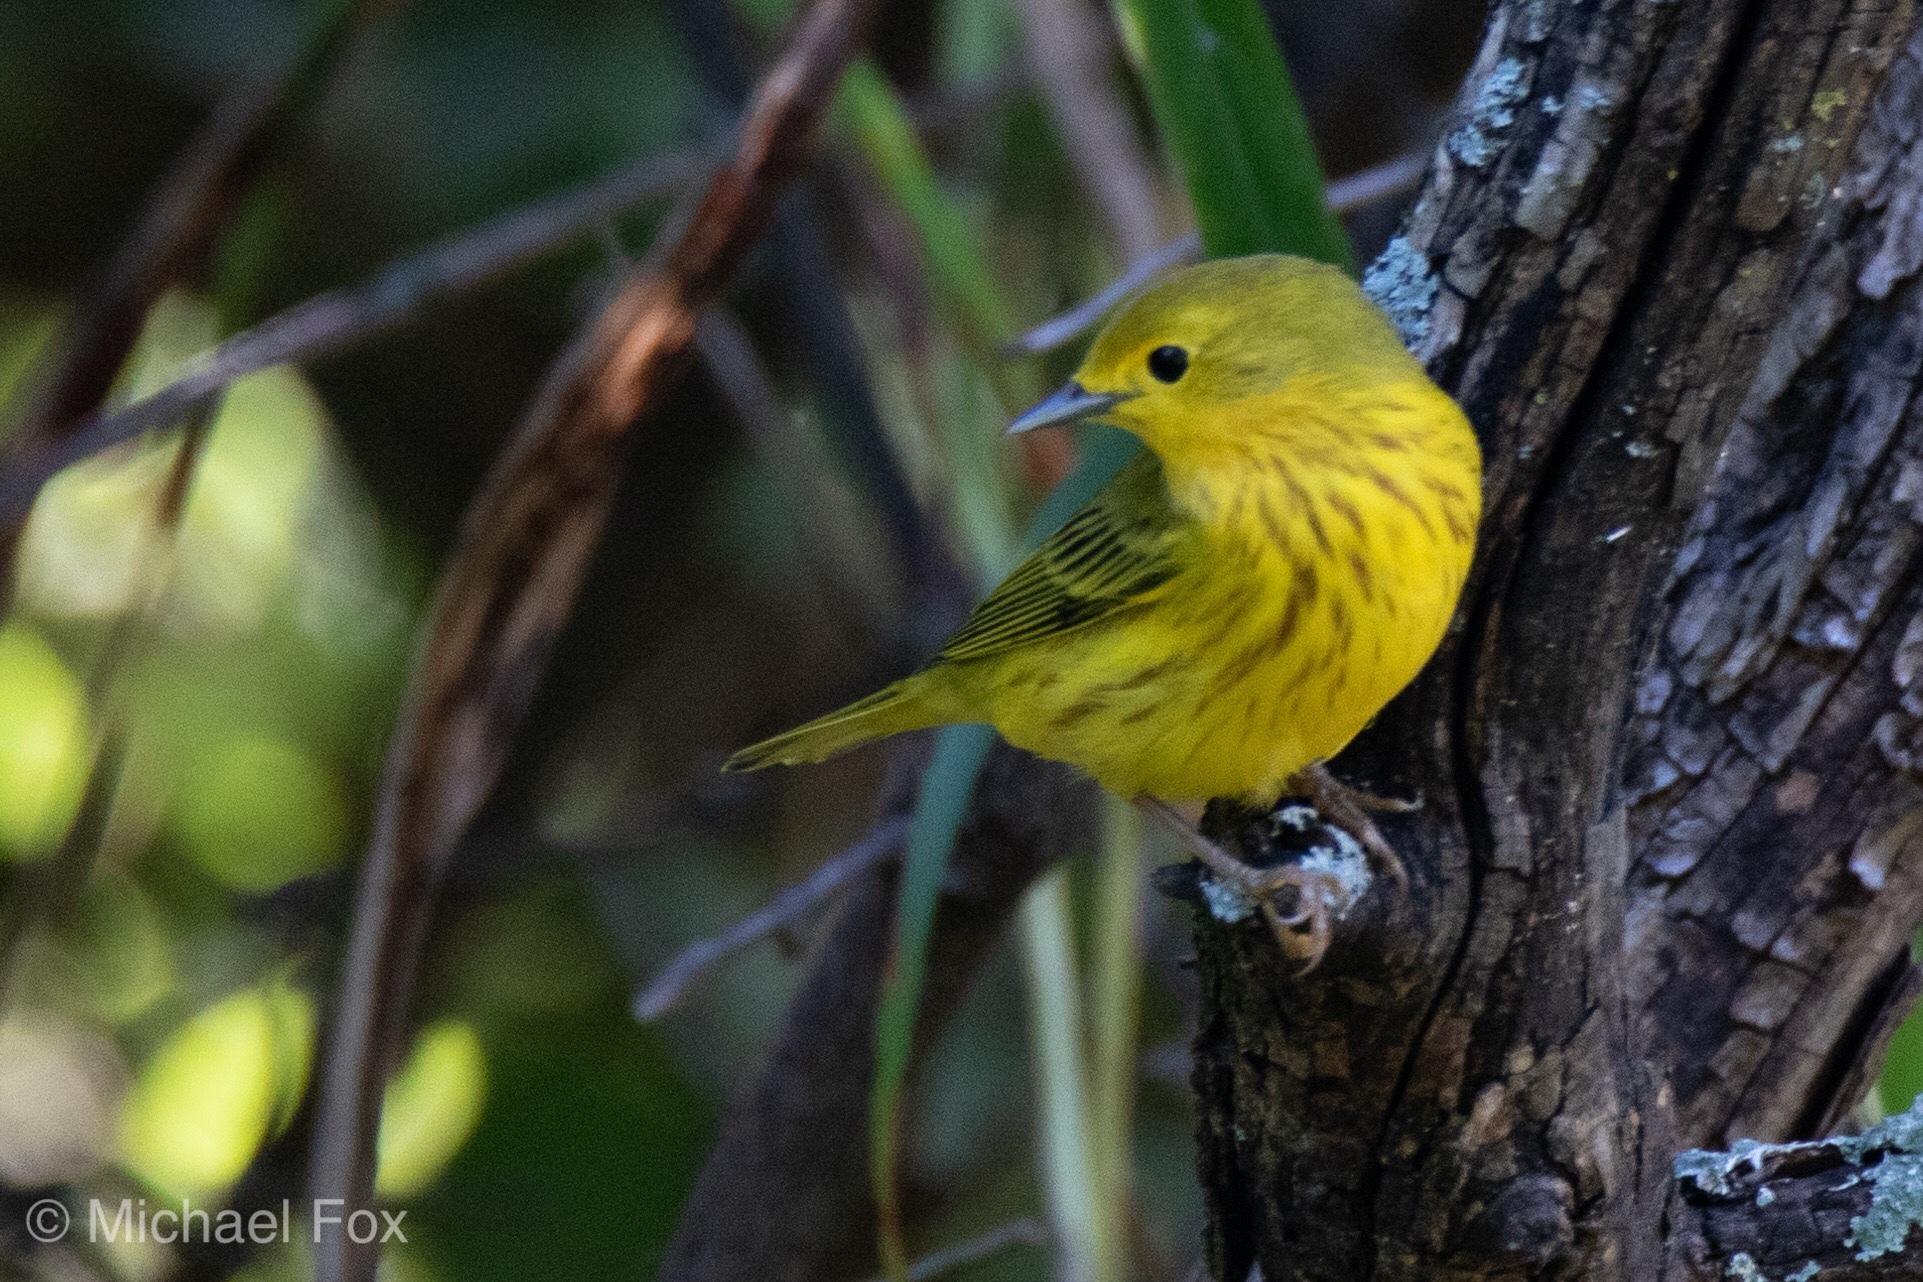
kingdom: Animalia
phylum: Chordata
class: Aves
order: Passeriformes
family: Parulidae
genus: Setophaga
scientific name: Setophaga petechia
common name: Yellow warbler
